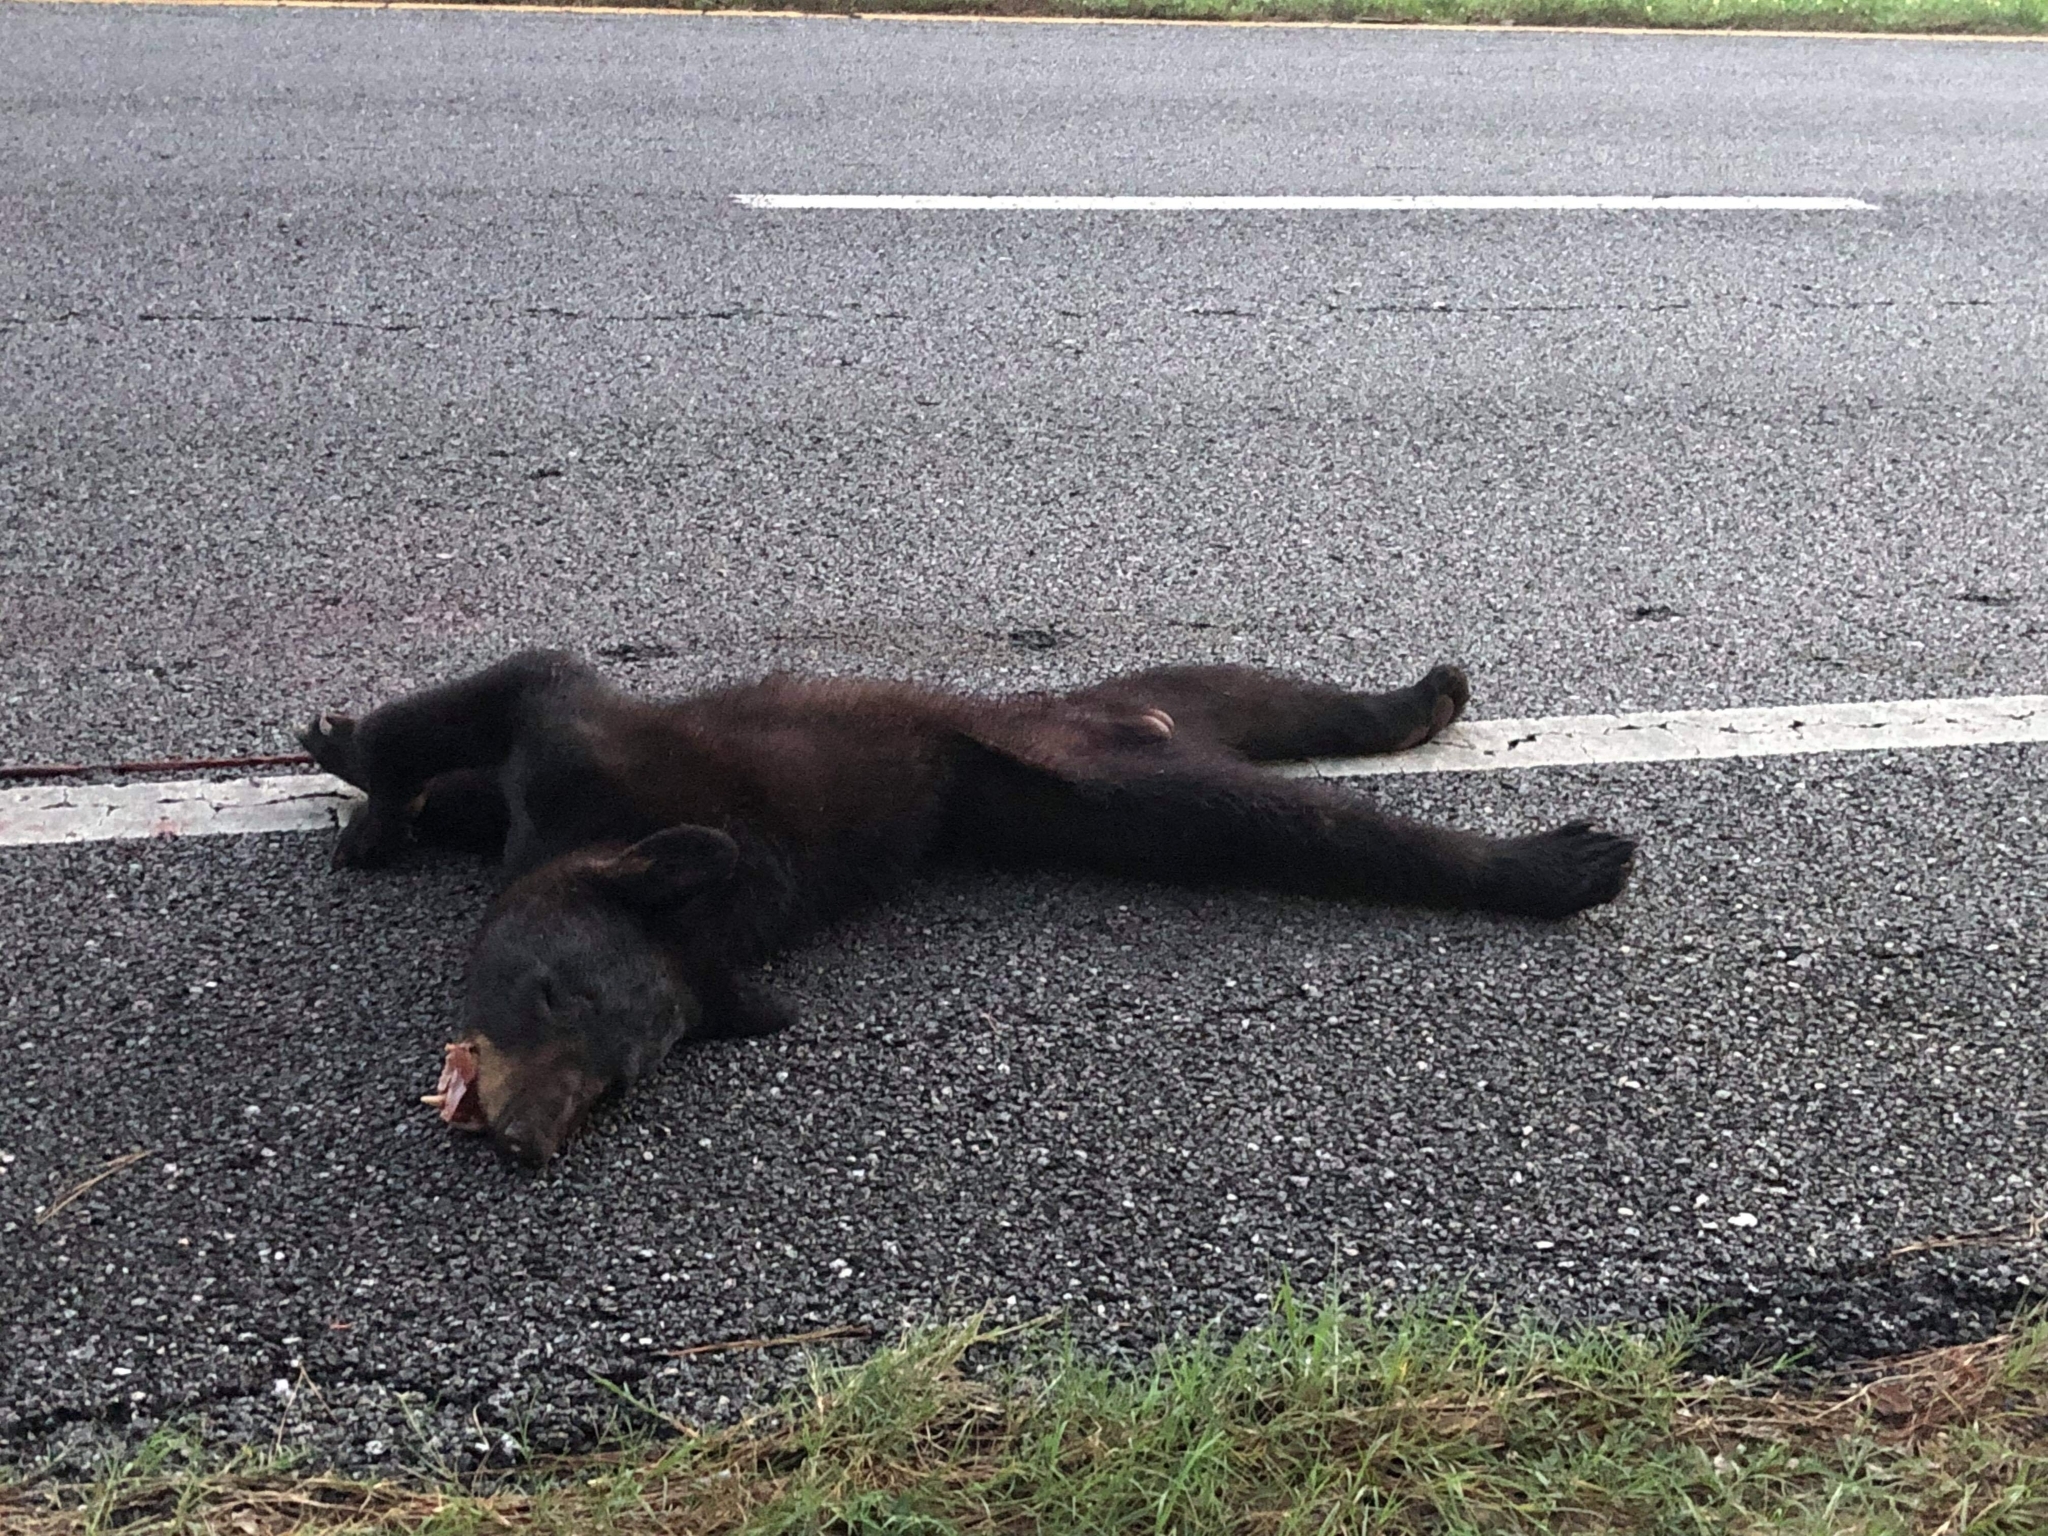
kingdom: Animalia
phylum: Chordata
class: Mammalia
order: Carnivora
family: Ursidae
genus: Ursus
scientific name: Ursus americanus
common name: American black bear
